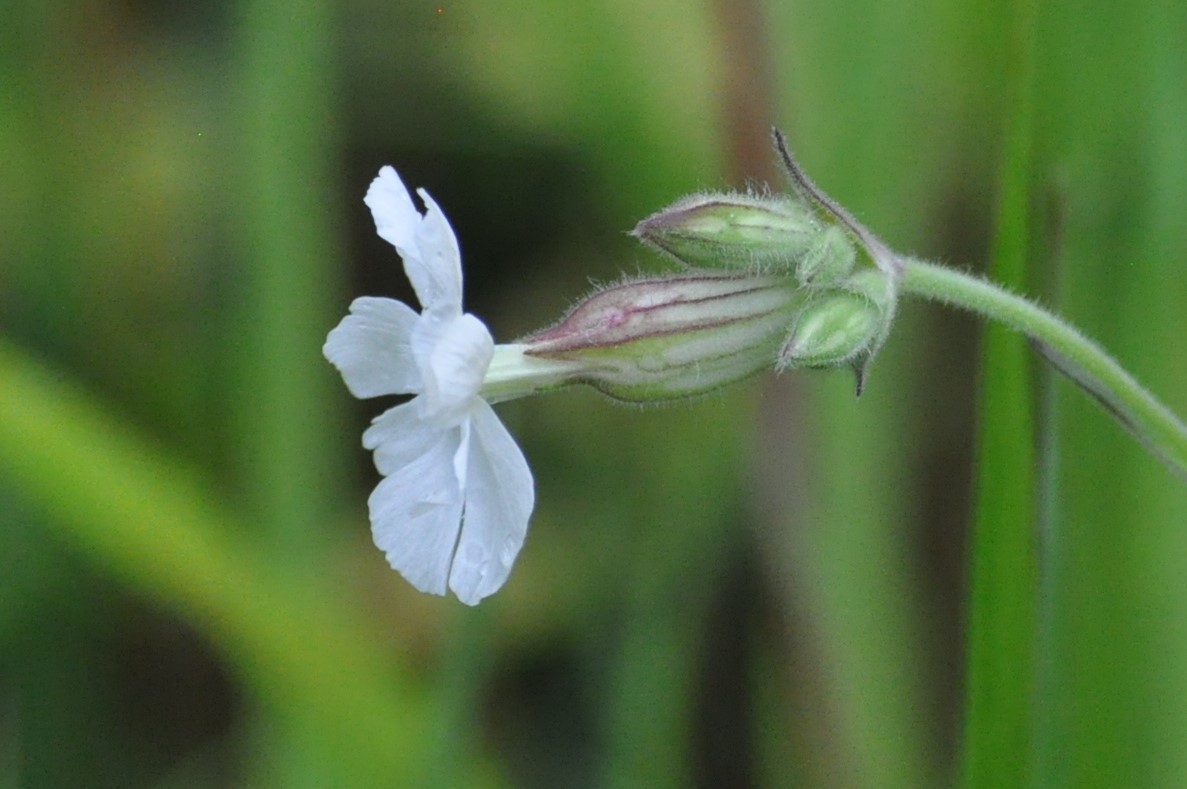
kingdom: Plantae
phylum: Tracheophyta
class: Magnoliopsida
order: Caryophyllales
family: Caryophyllaceae
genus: Silene
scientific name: Silene latifolia
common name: White campion
